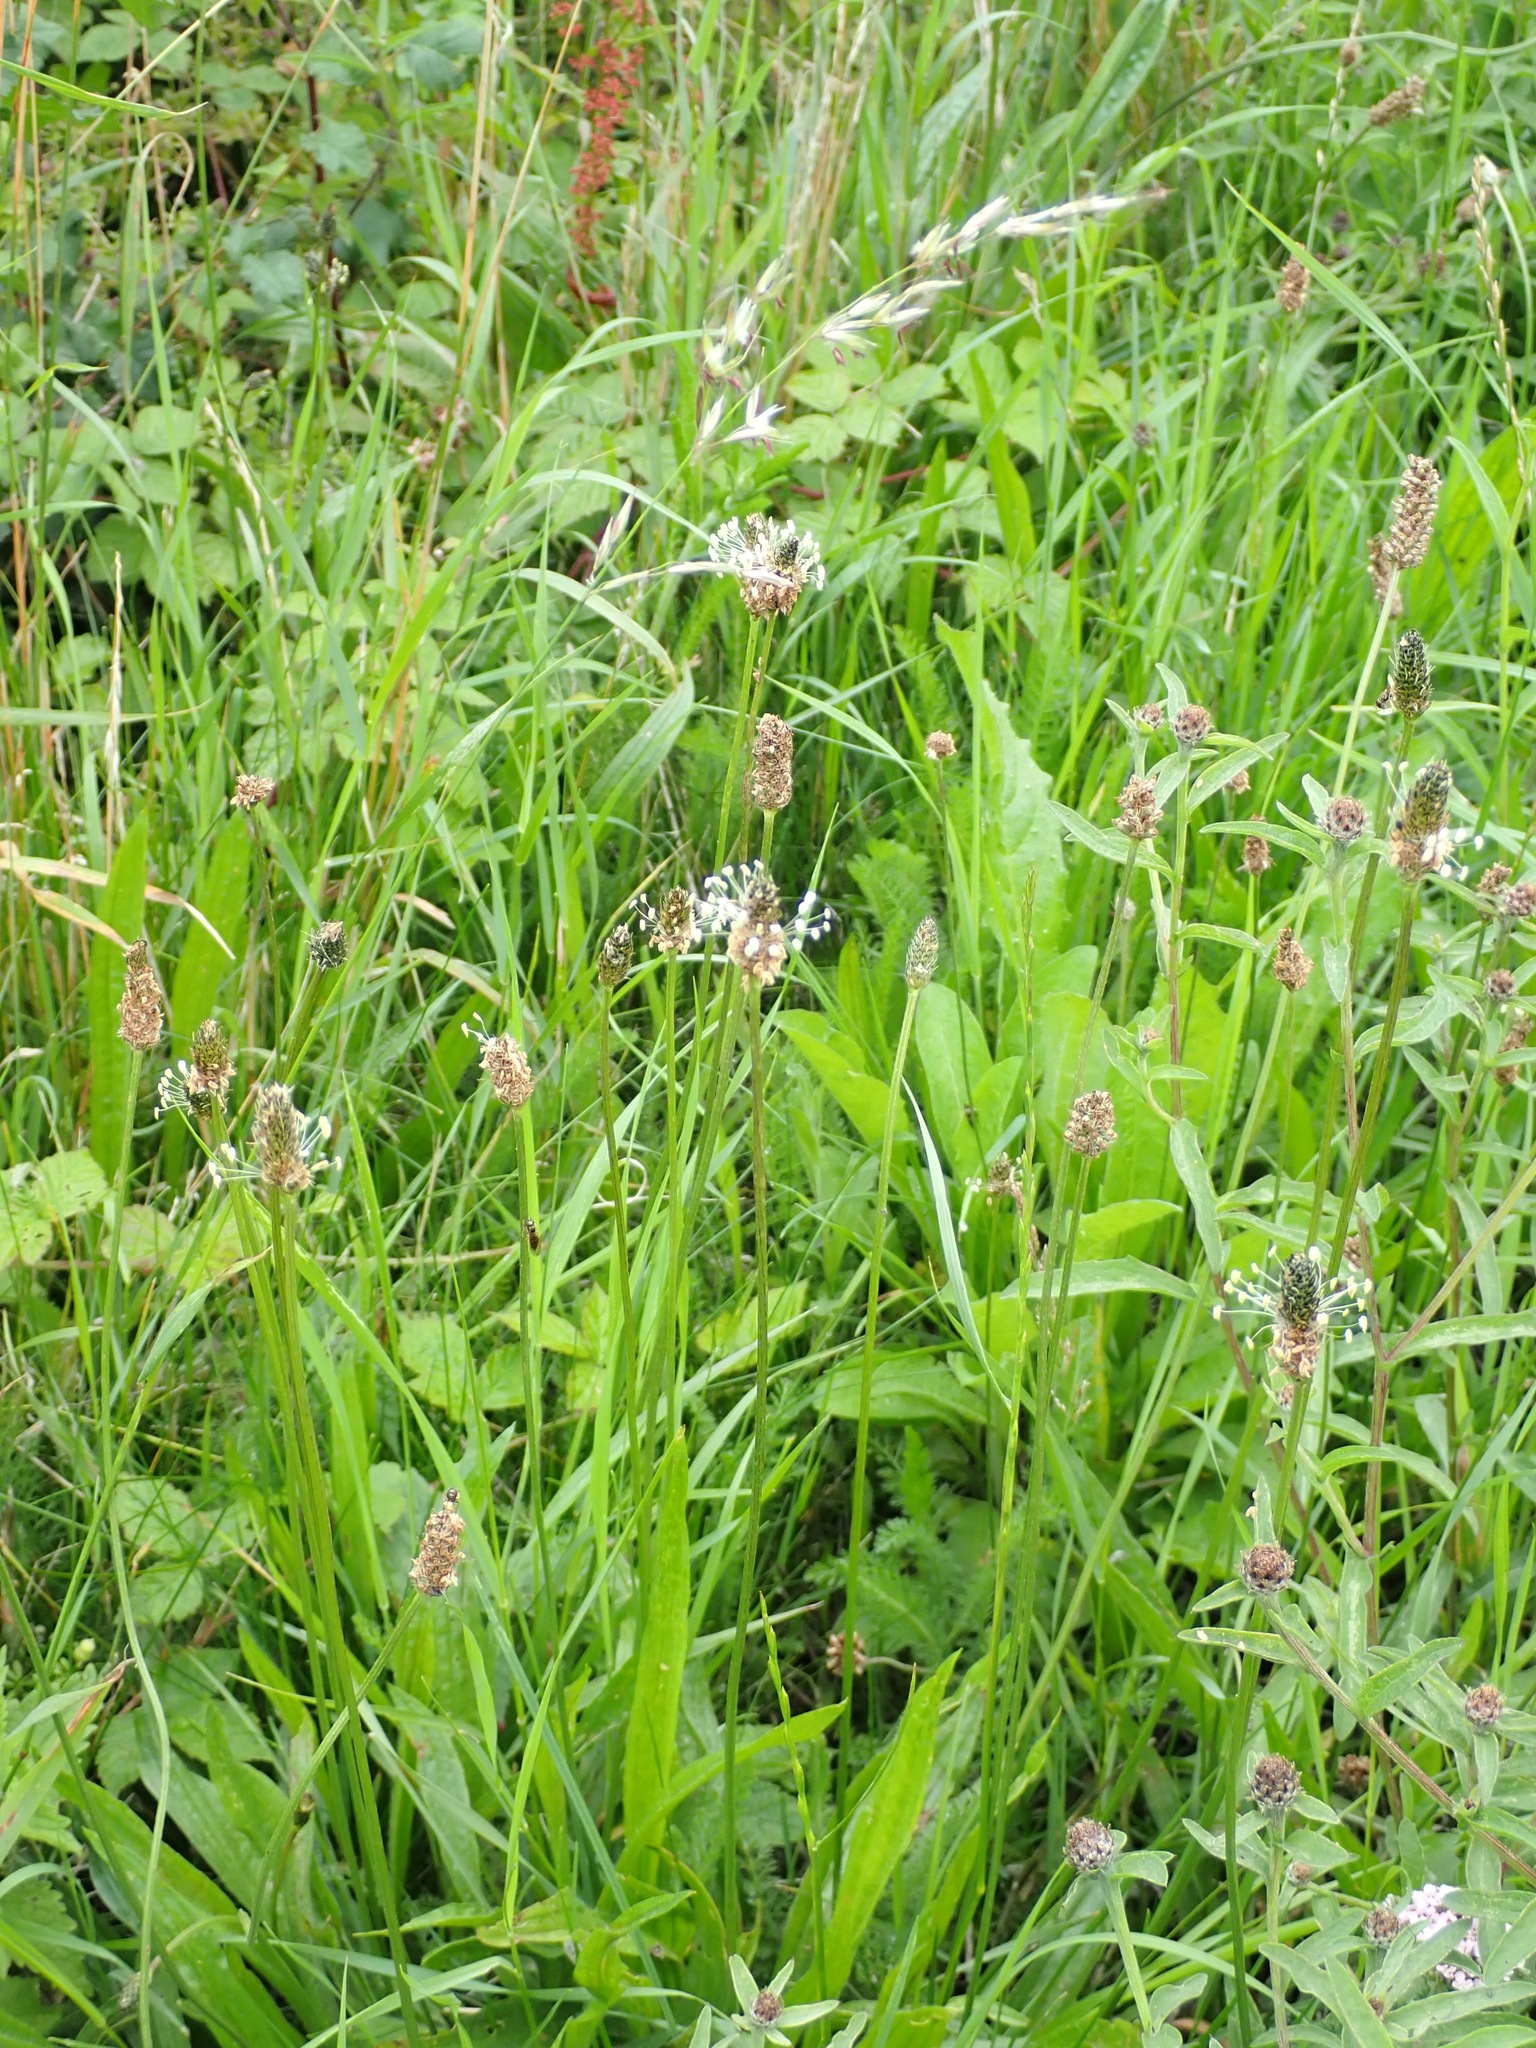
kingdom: Plantae
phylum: Tracheophyta
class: Magnoliopsida
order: Lamiales
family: Plantaginaceae
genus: Plantago
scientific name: Plantago lanceolata
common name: Ribwort plantain
